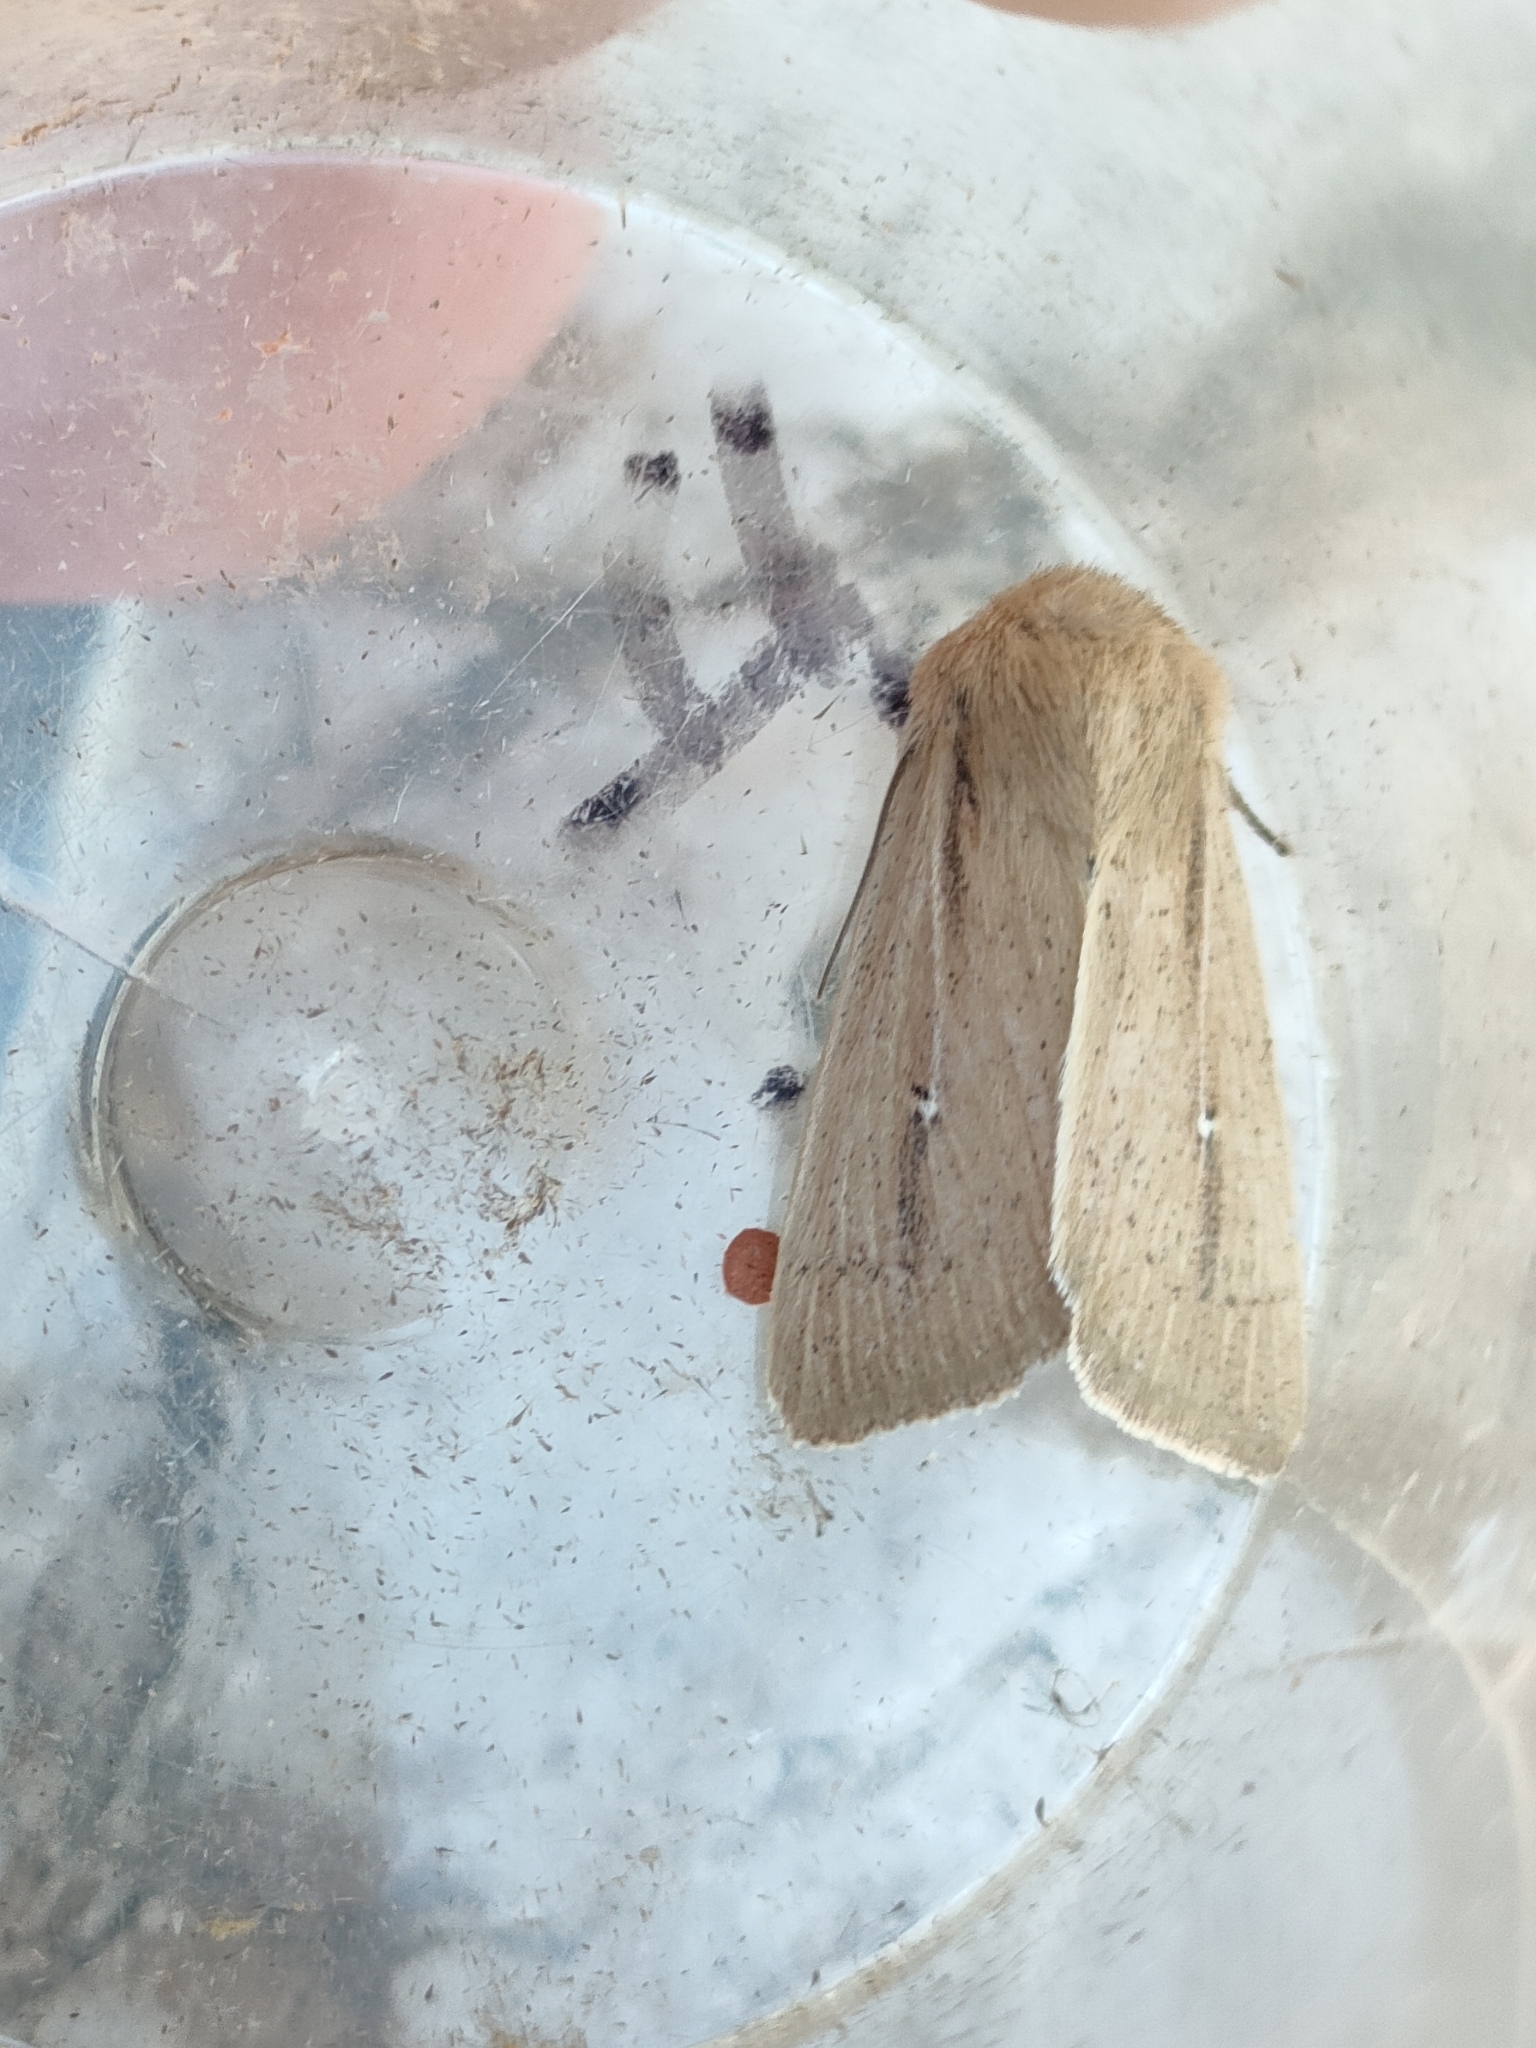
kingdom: Animalia
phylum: Arthropoda
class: Insecta
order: Lepidoptera
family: Noctuidae
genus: Mythimna
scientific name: Mythimna sicula
